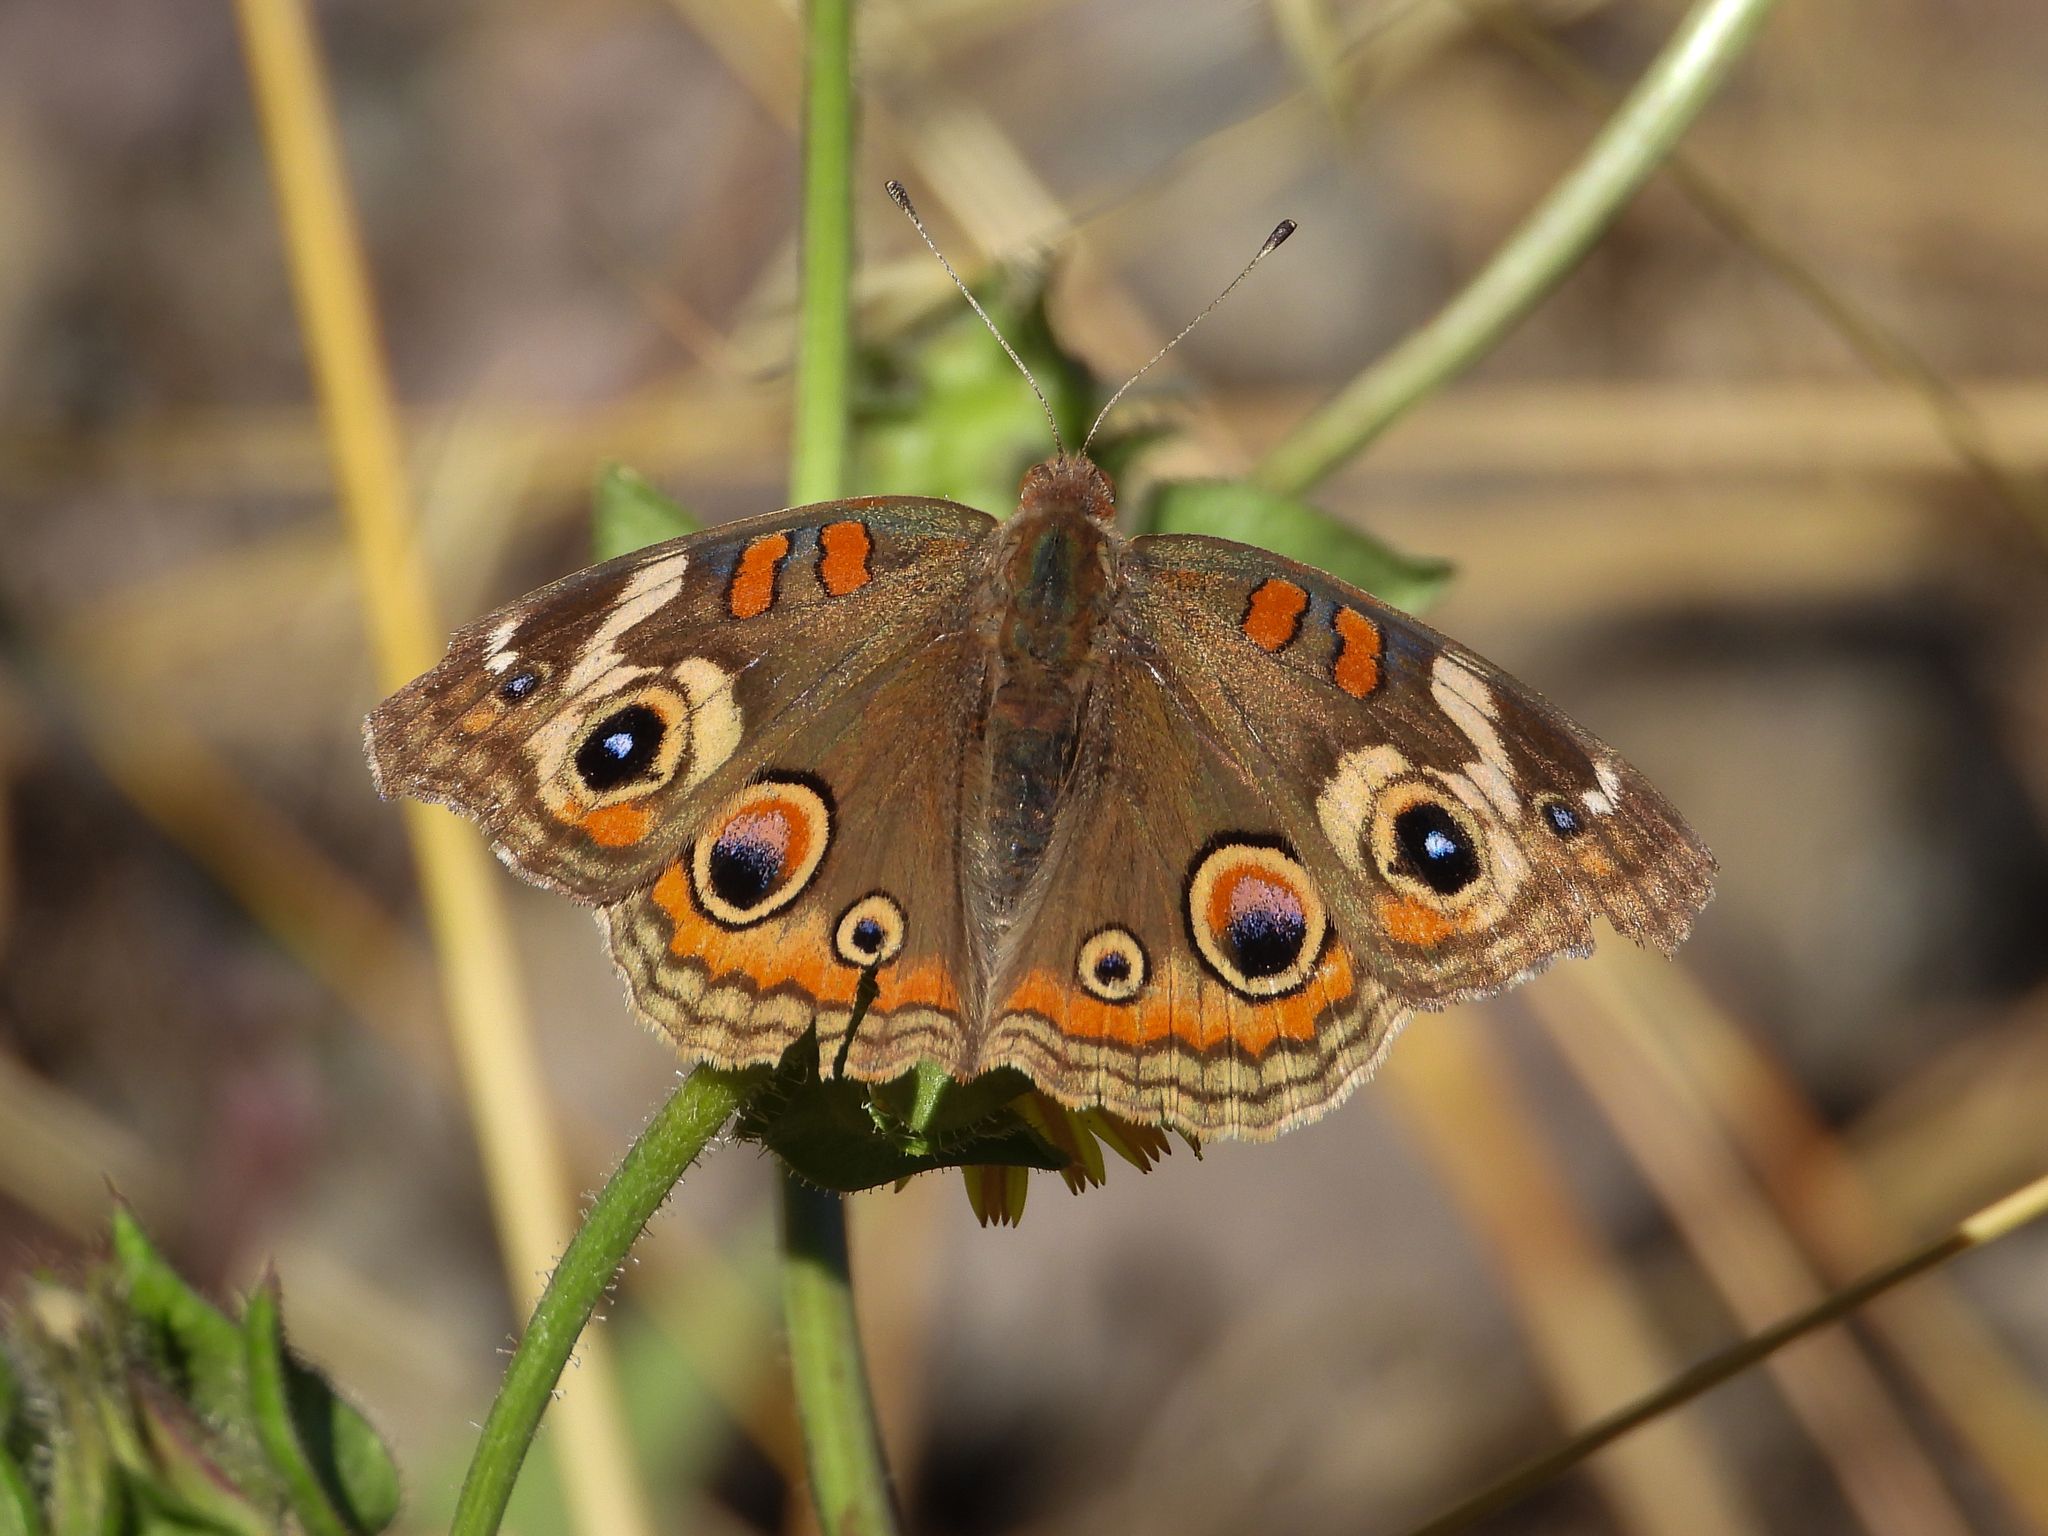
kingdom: Animalia
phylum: Arthropoda
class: Insecta
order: Lepidoptera
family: Nymphalidae
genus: Junonia
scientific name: Junonia grisea
